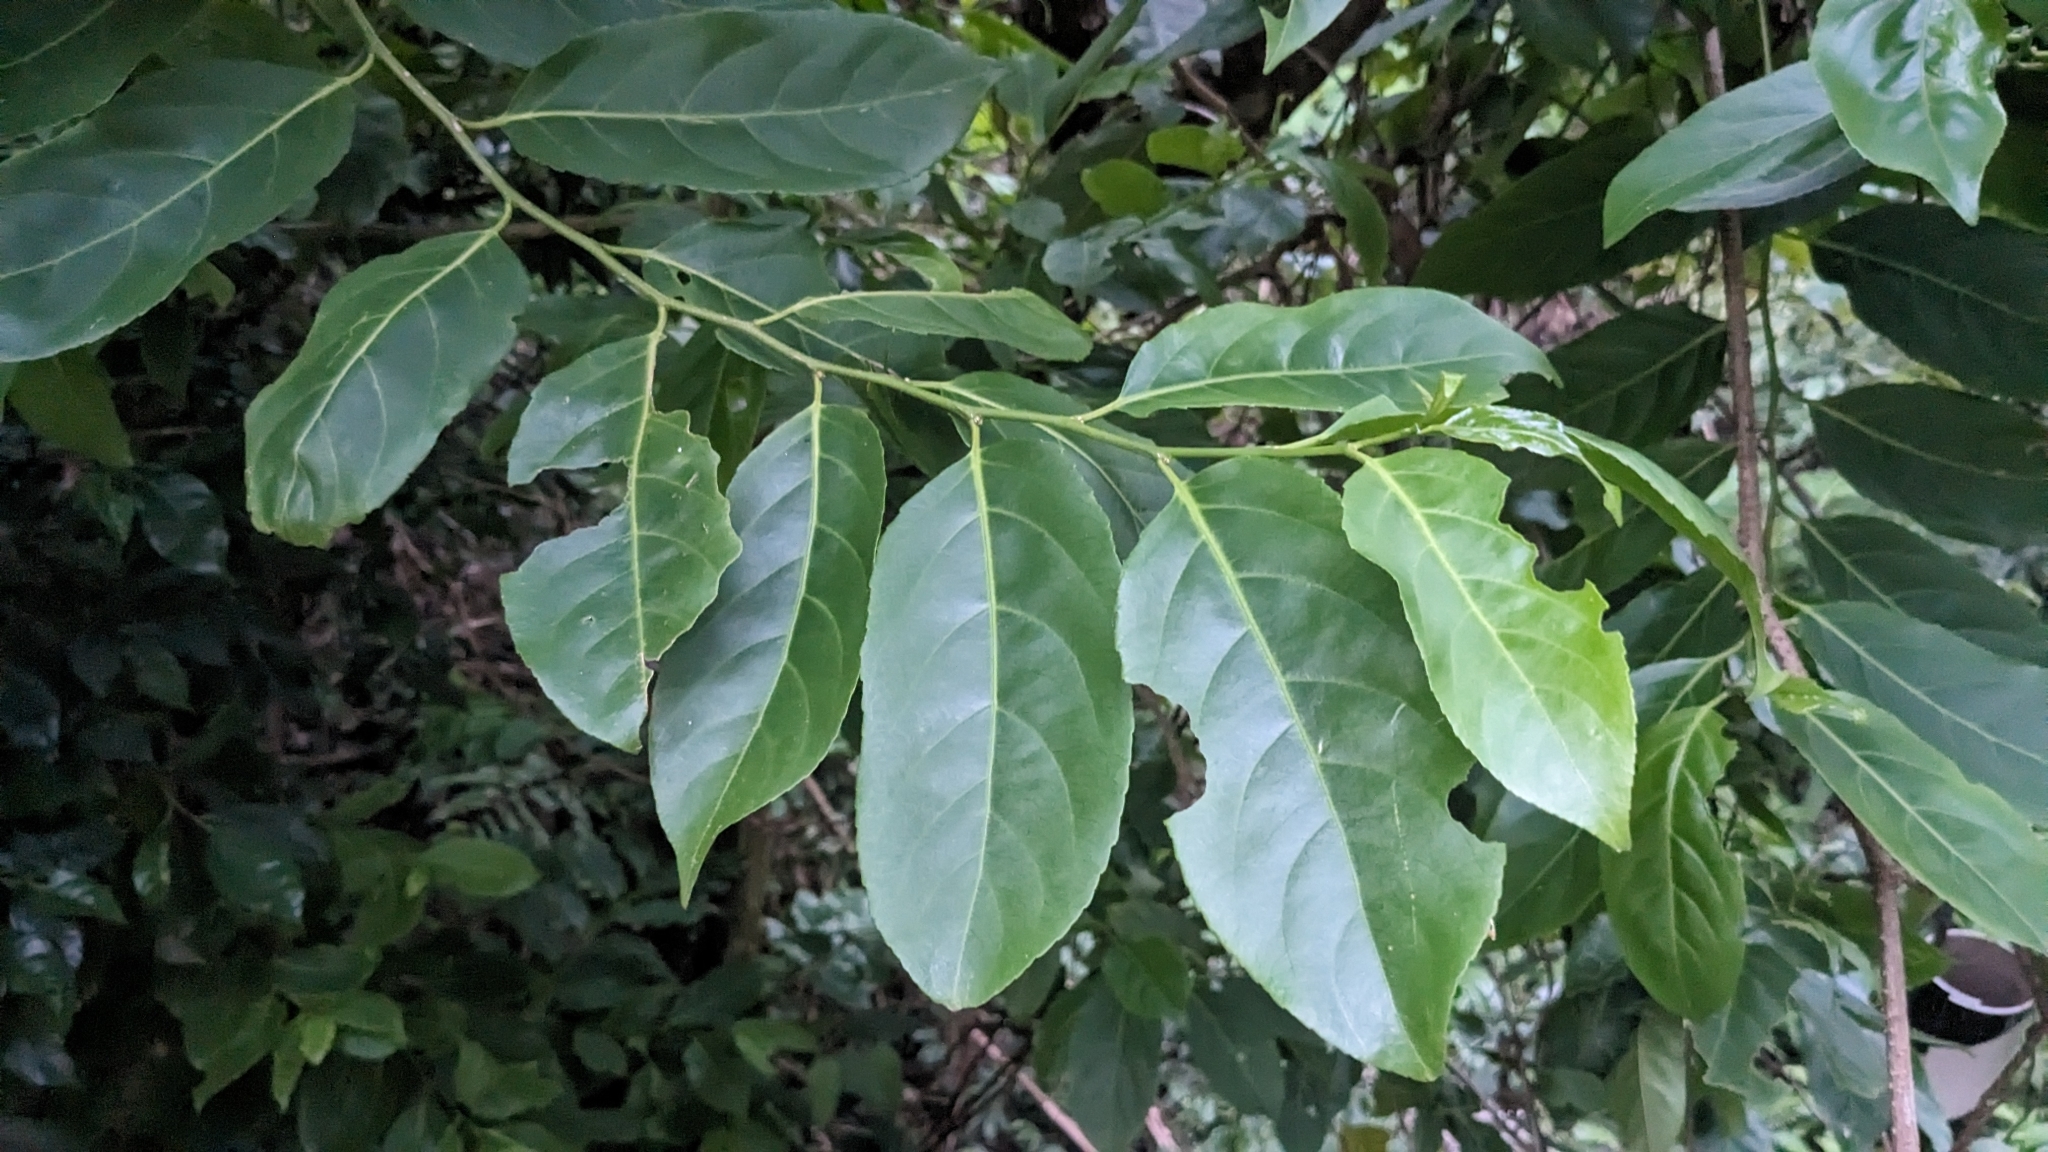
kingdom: Plantae
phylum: Tracheophyta
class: Magnoliopsida
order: Malpighiales
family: Salicaceae
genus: Casearia
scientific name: Casearia glomerata
